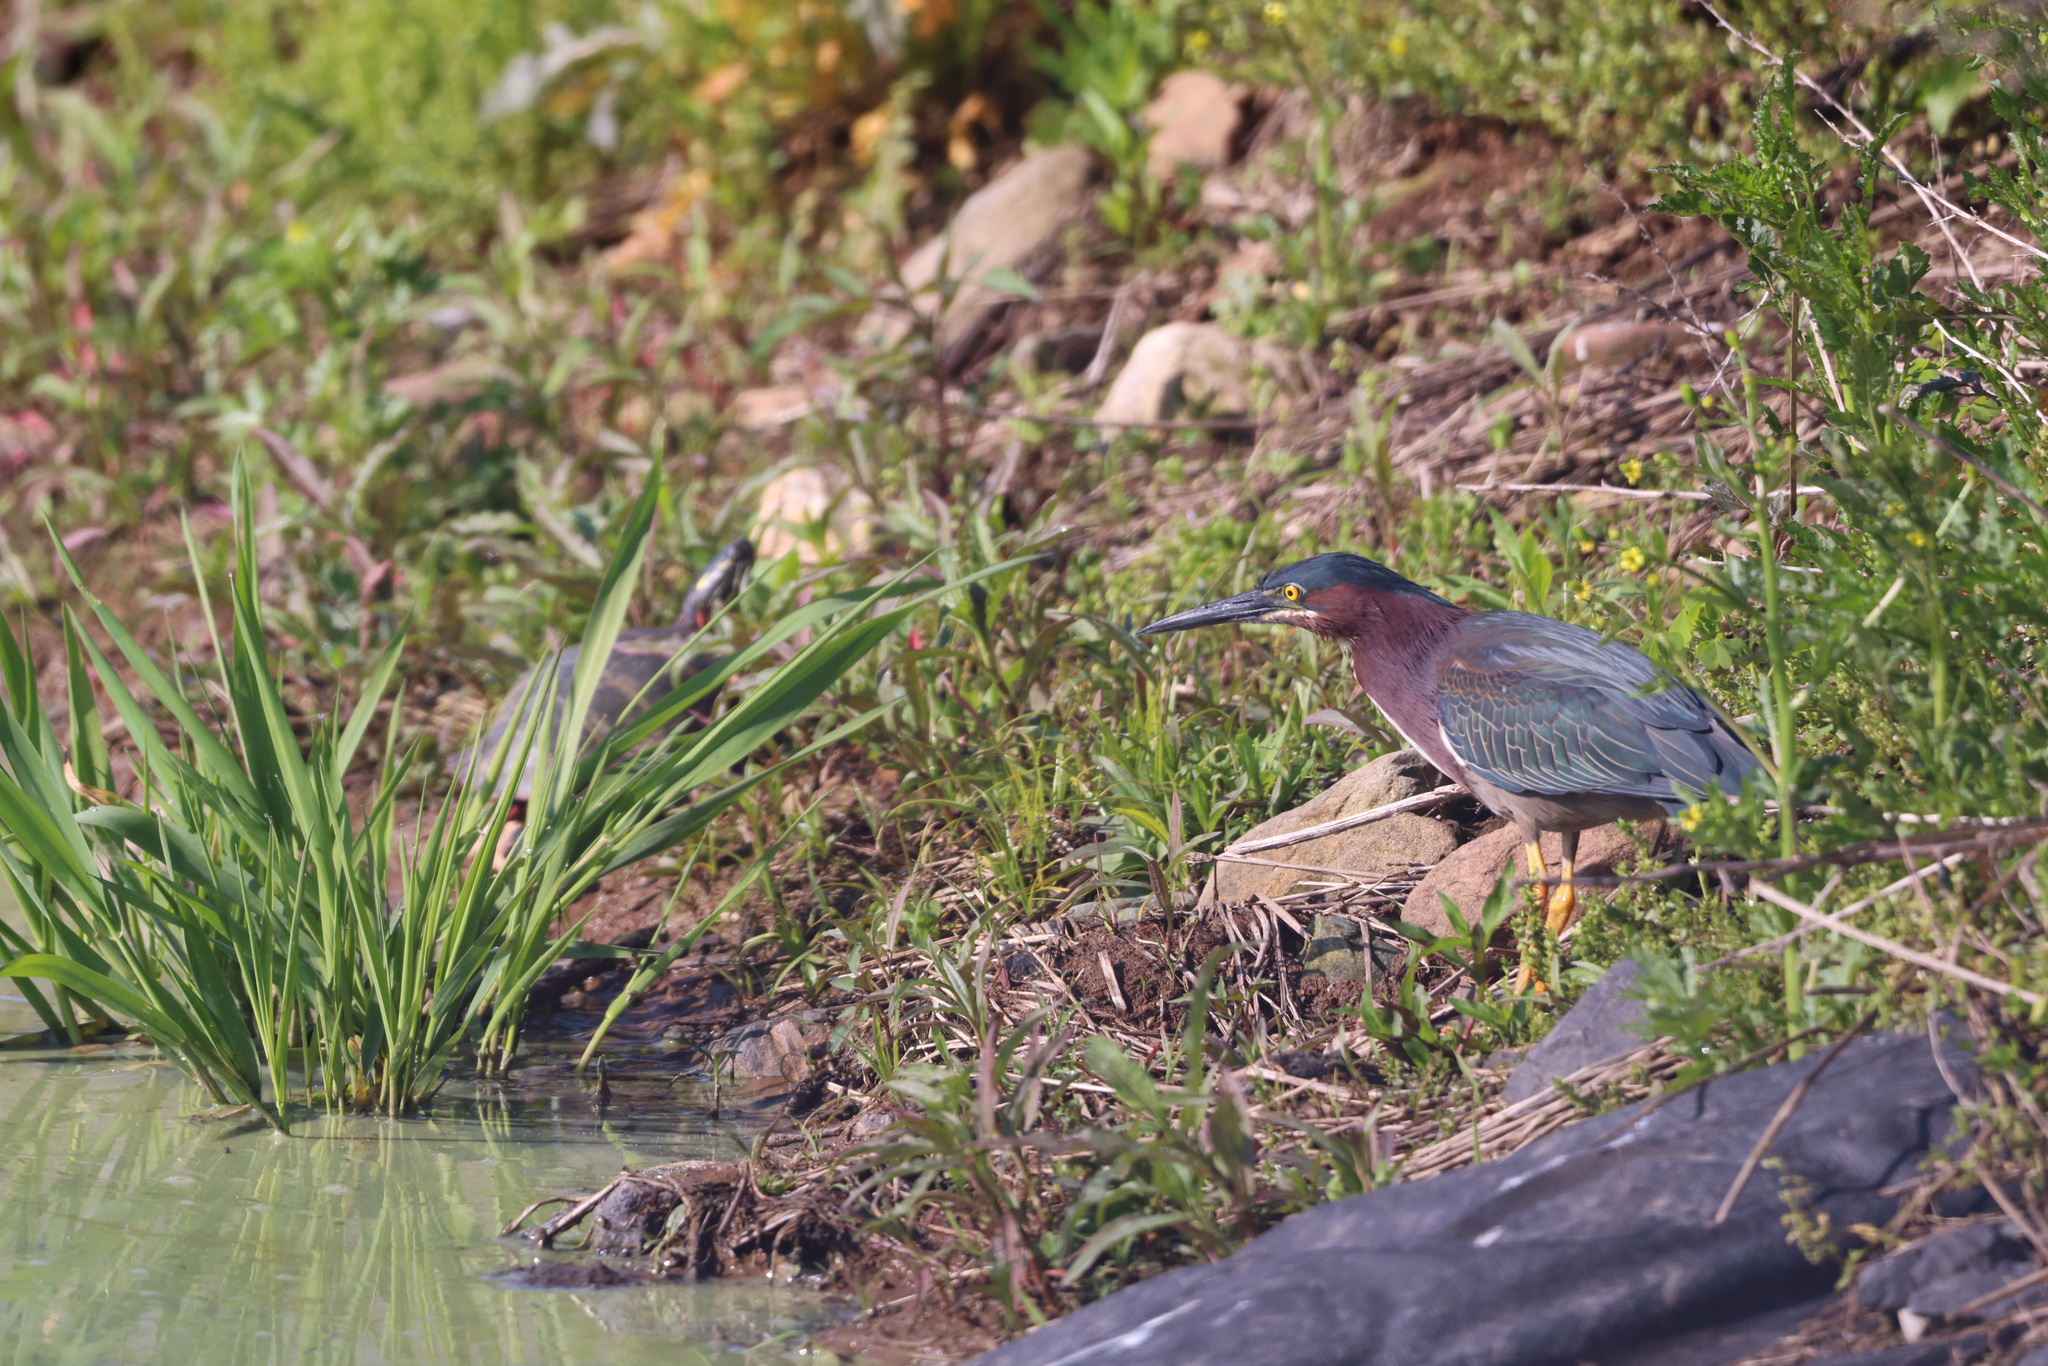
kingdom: Animalia
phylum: Chordata
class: Aves
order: Pelecaniformes
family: Ardeidae
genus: Butorides
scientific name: Butorides virescens
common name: Green heron
